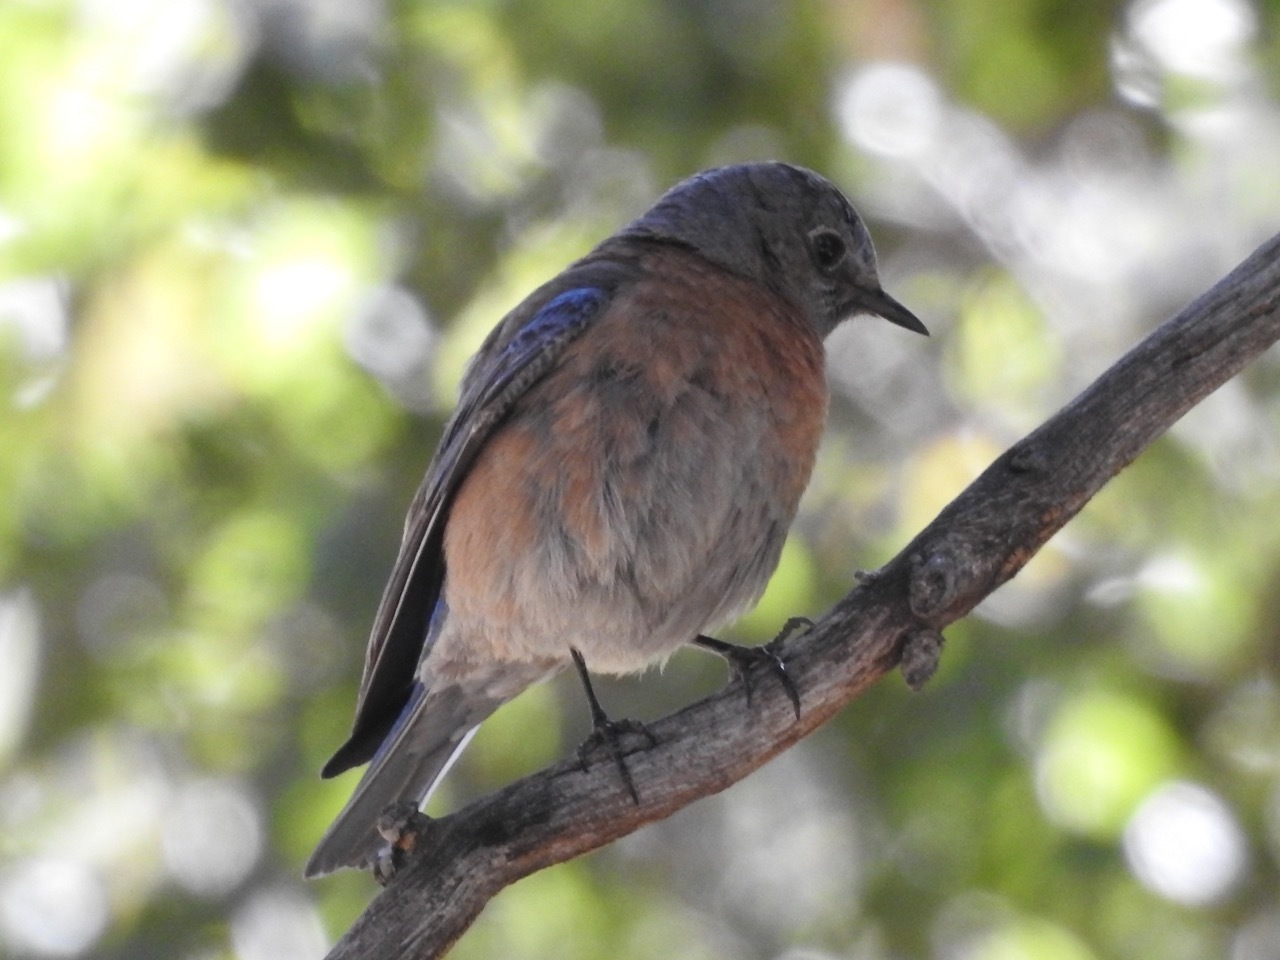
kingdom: Animalia
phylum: Chordata
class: Aves
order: Passeriformes
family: Turdidae
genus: Sialia
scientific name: Sialia mexicana
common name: Western bluebird
